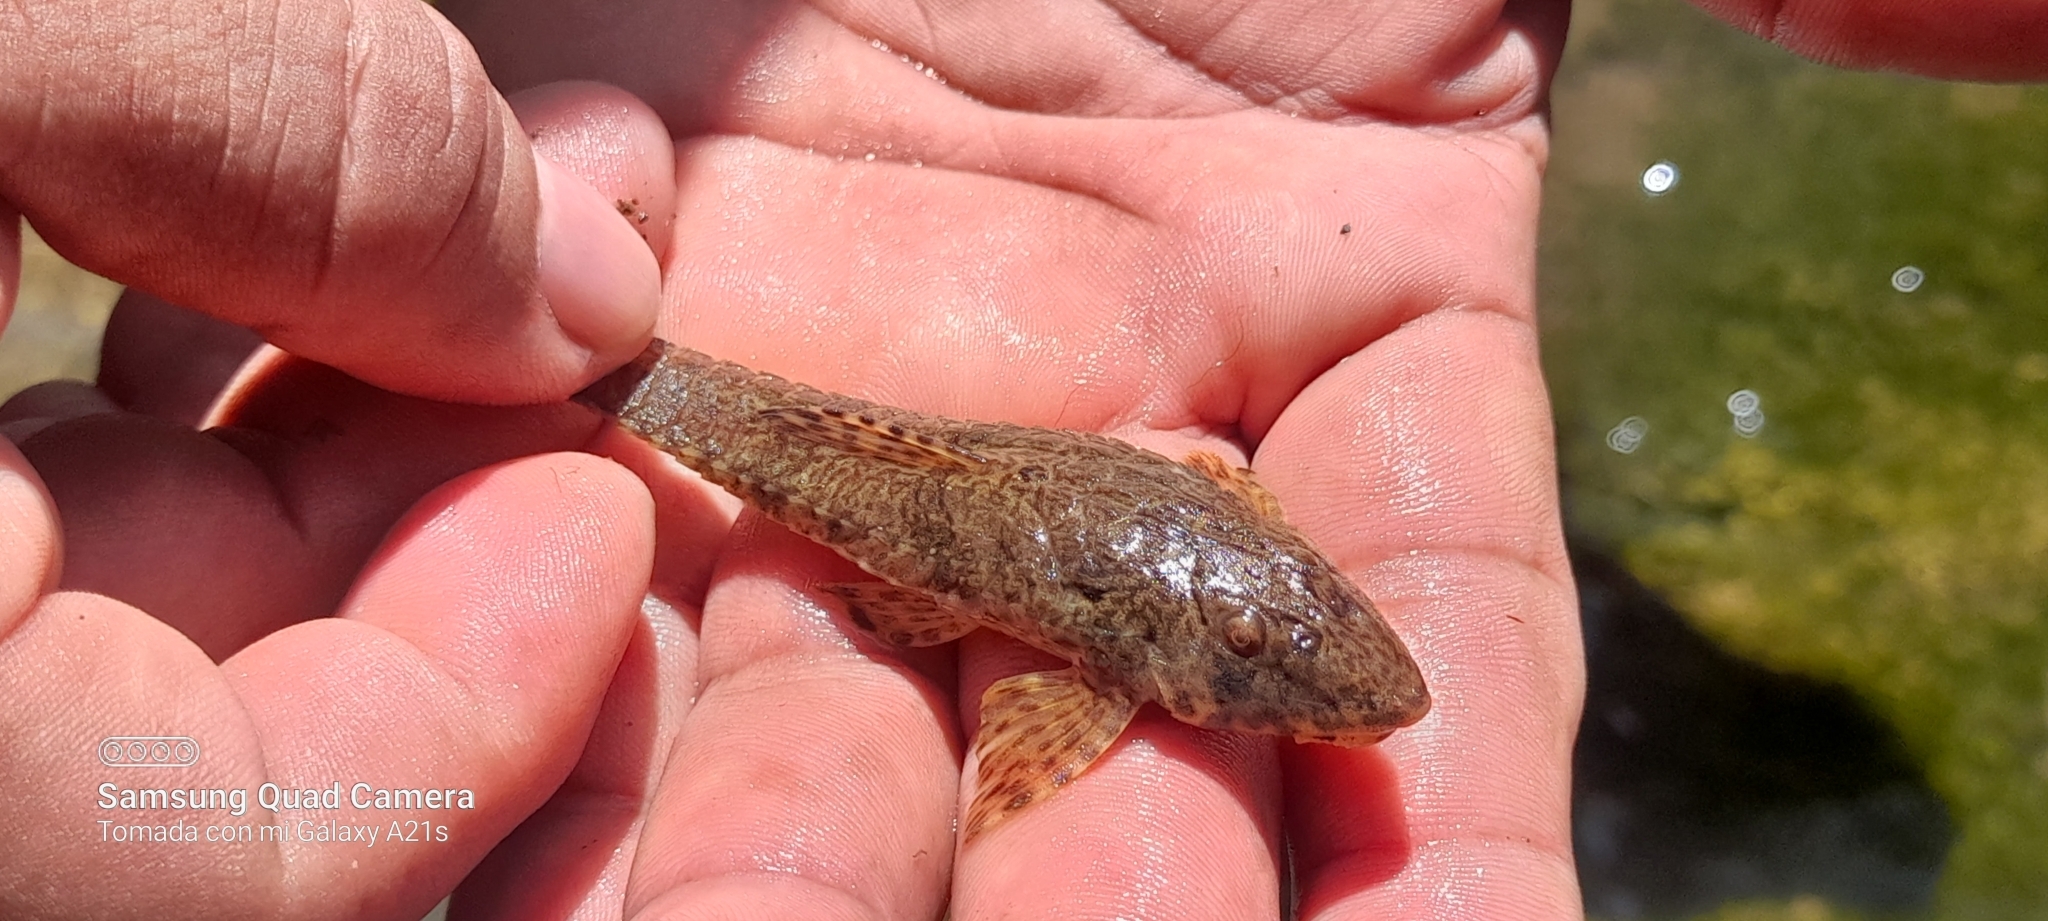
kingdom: Animalia
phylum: Chordata
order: Siluriformes
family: Loricariidae
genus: Fonchiiichthys
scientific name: Fonchiiichthys uracanthus
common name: Armored catfish
